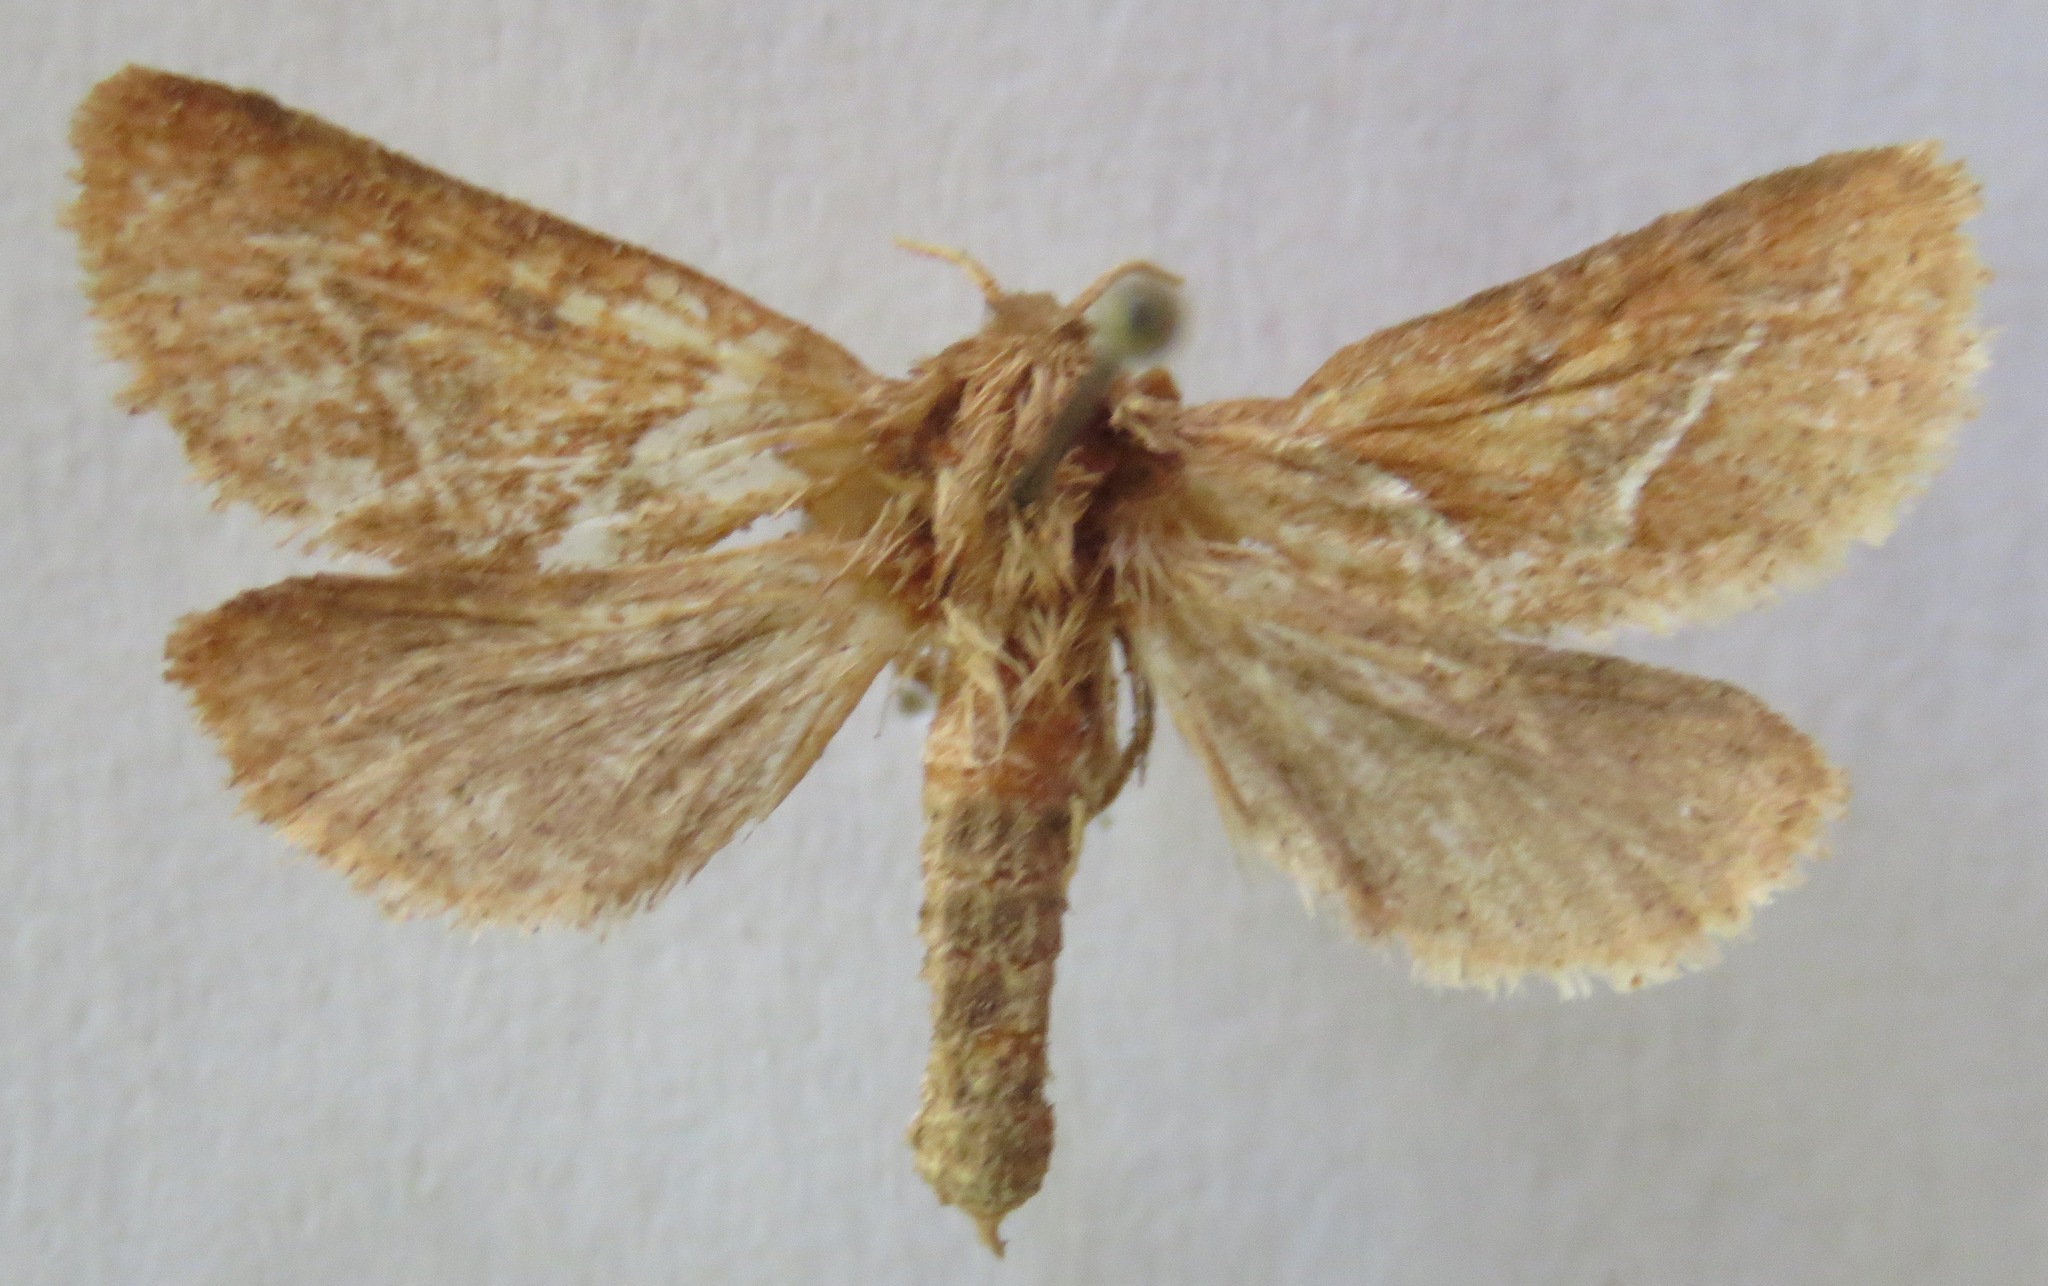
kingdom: Animalia
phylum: Arthropoda
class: Insecta
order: Lepidoptera
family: Hepialidae
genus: Triodia
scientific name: Triodia sylvina
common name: Orange swift
